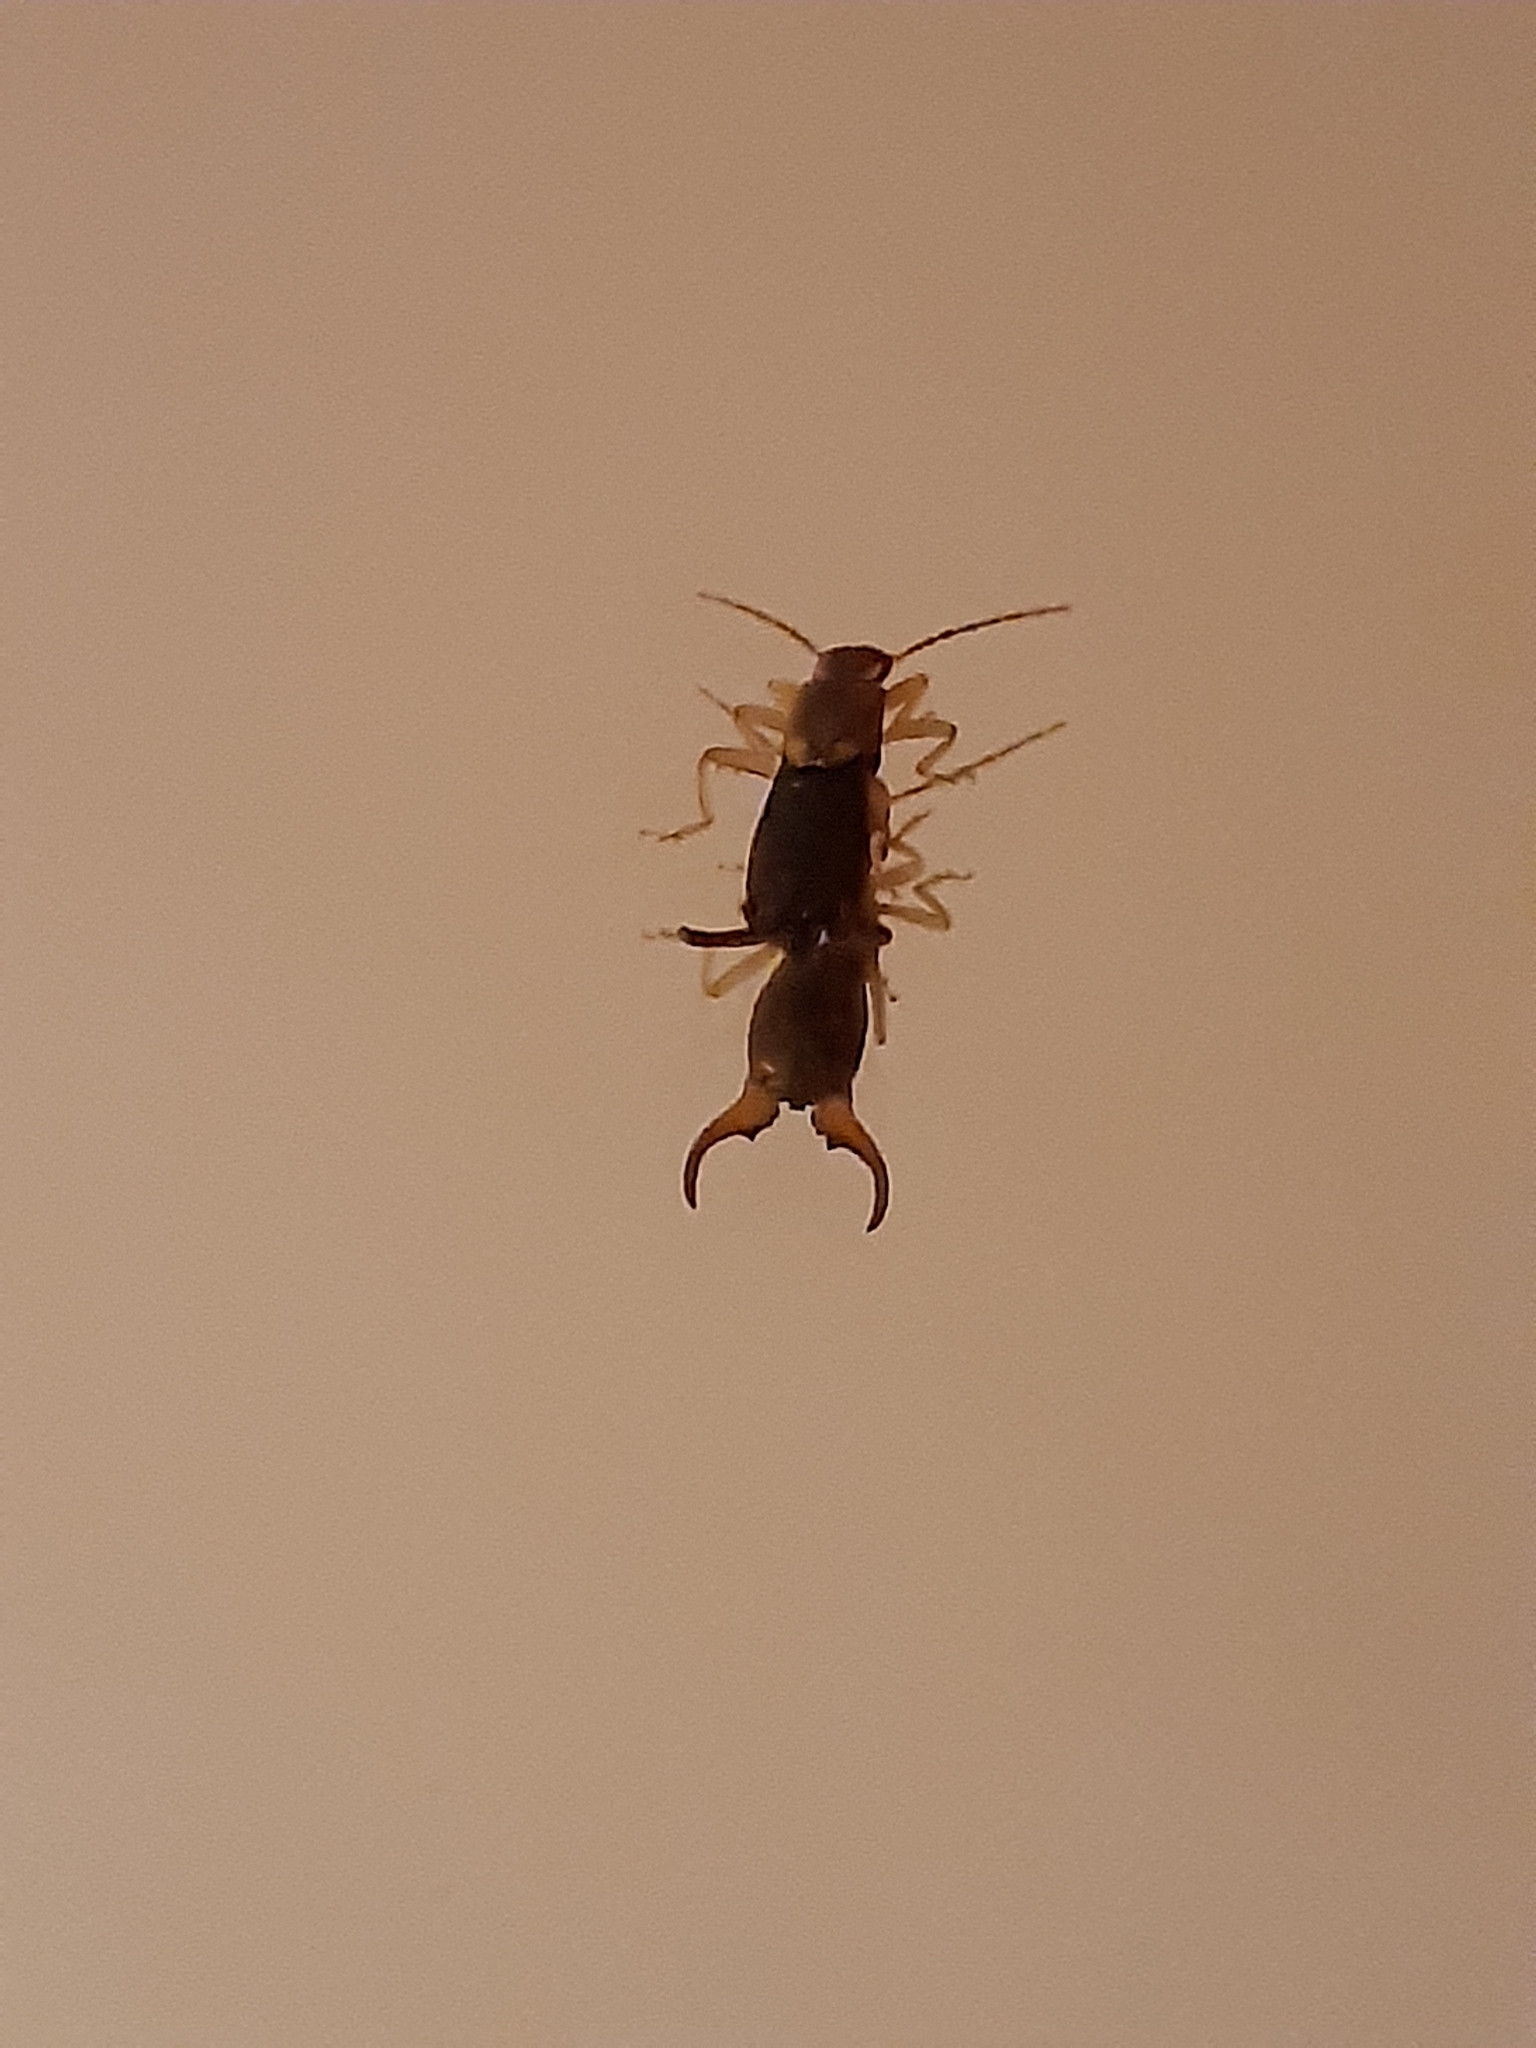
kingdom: Animalia
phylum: Arthropoda
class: Insecta
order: Dermaptera
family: Forficulidae
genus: Forficula
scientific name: Forficula
